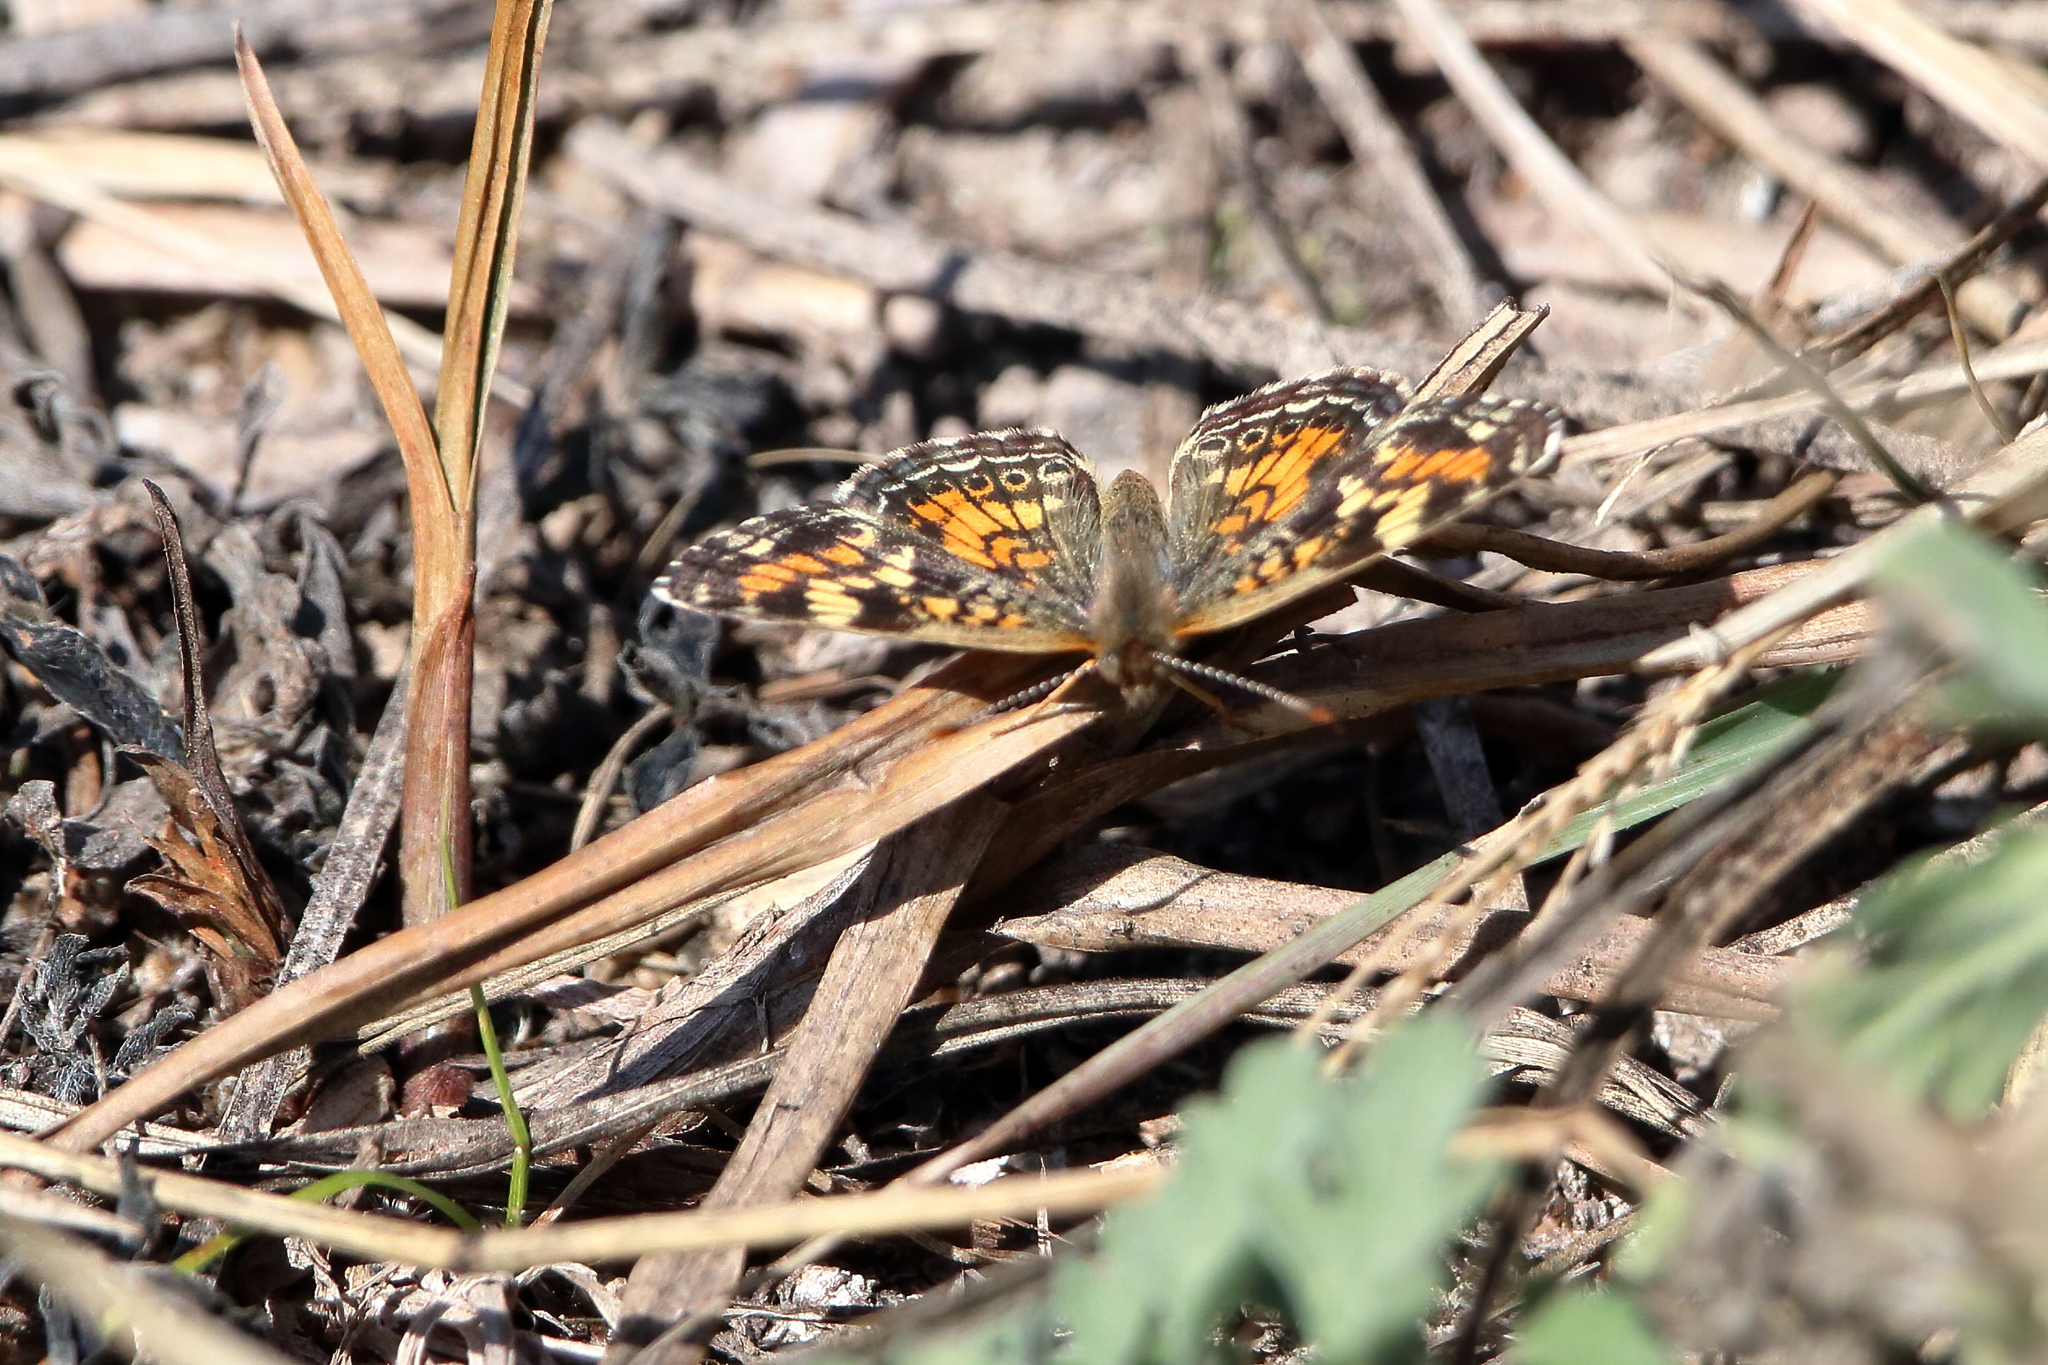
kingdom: Animalia
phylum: Arthropoda
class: Insecta
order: Lepidoptera
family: Nymphalidae
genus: Phyciodes
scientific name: Phyciodes phaon
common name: Phaon crescent
